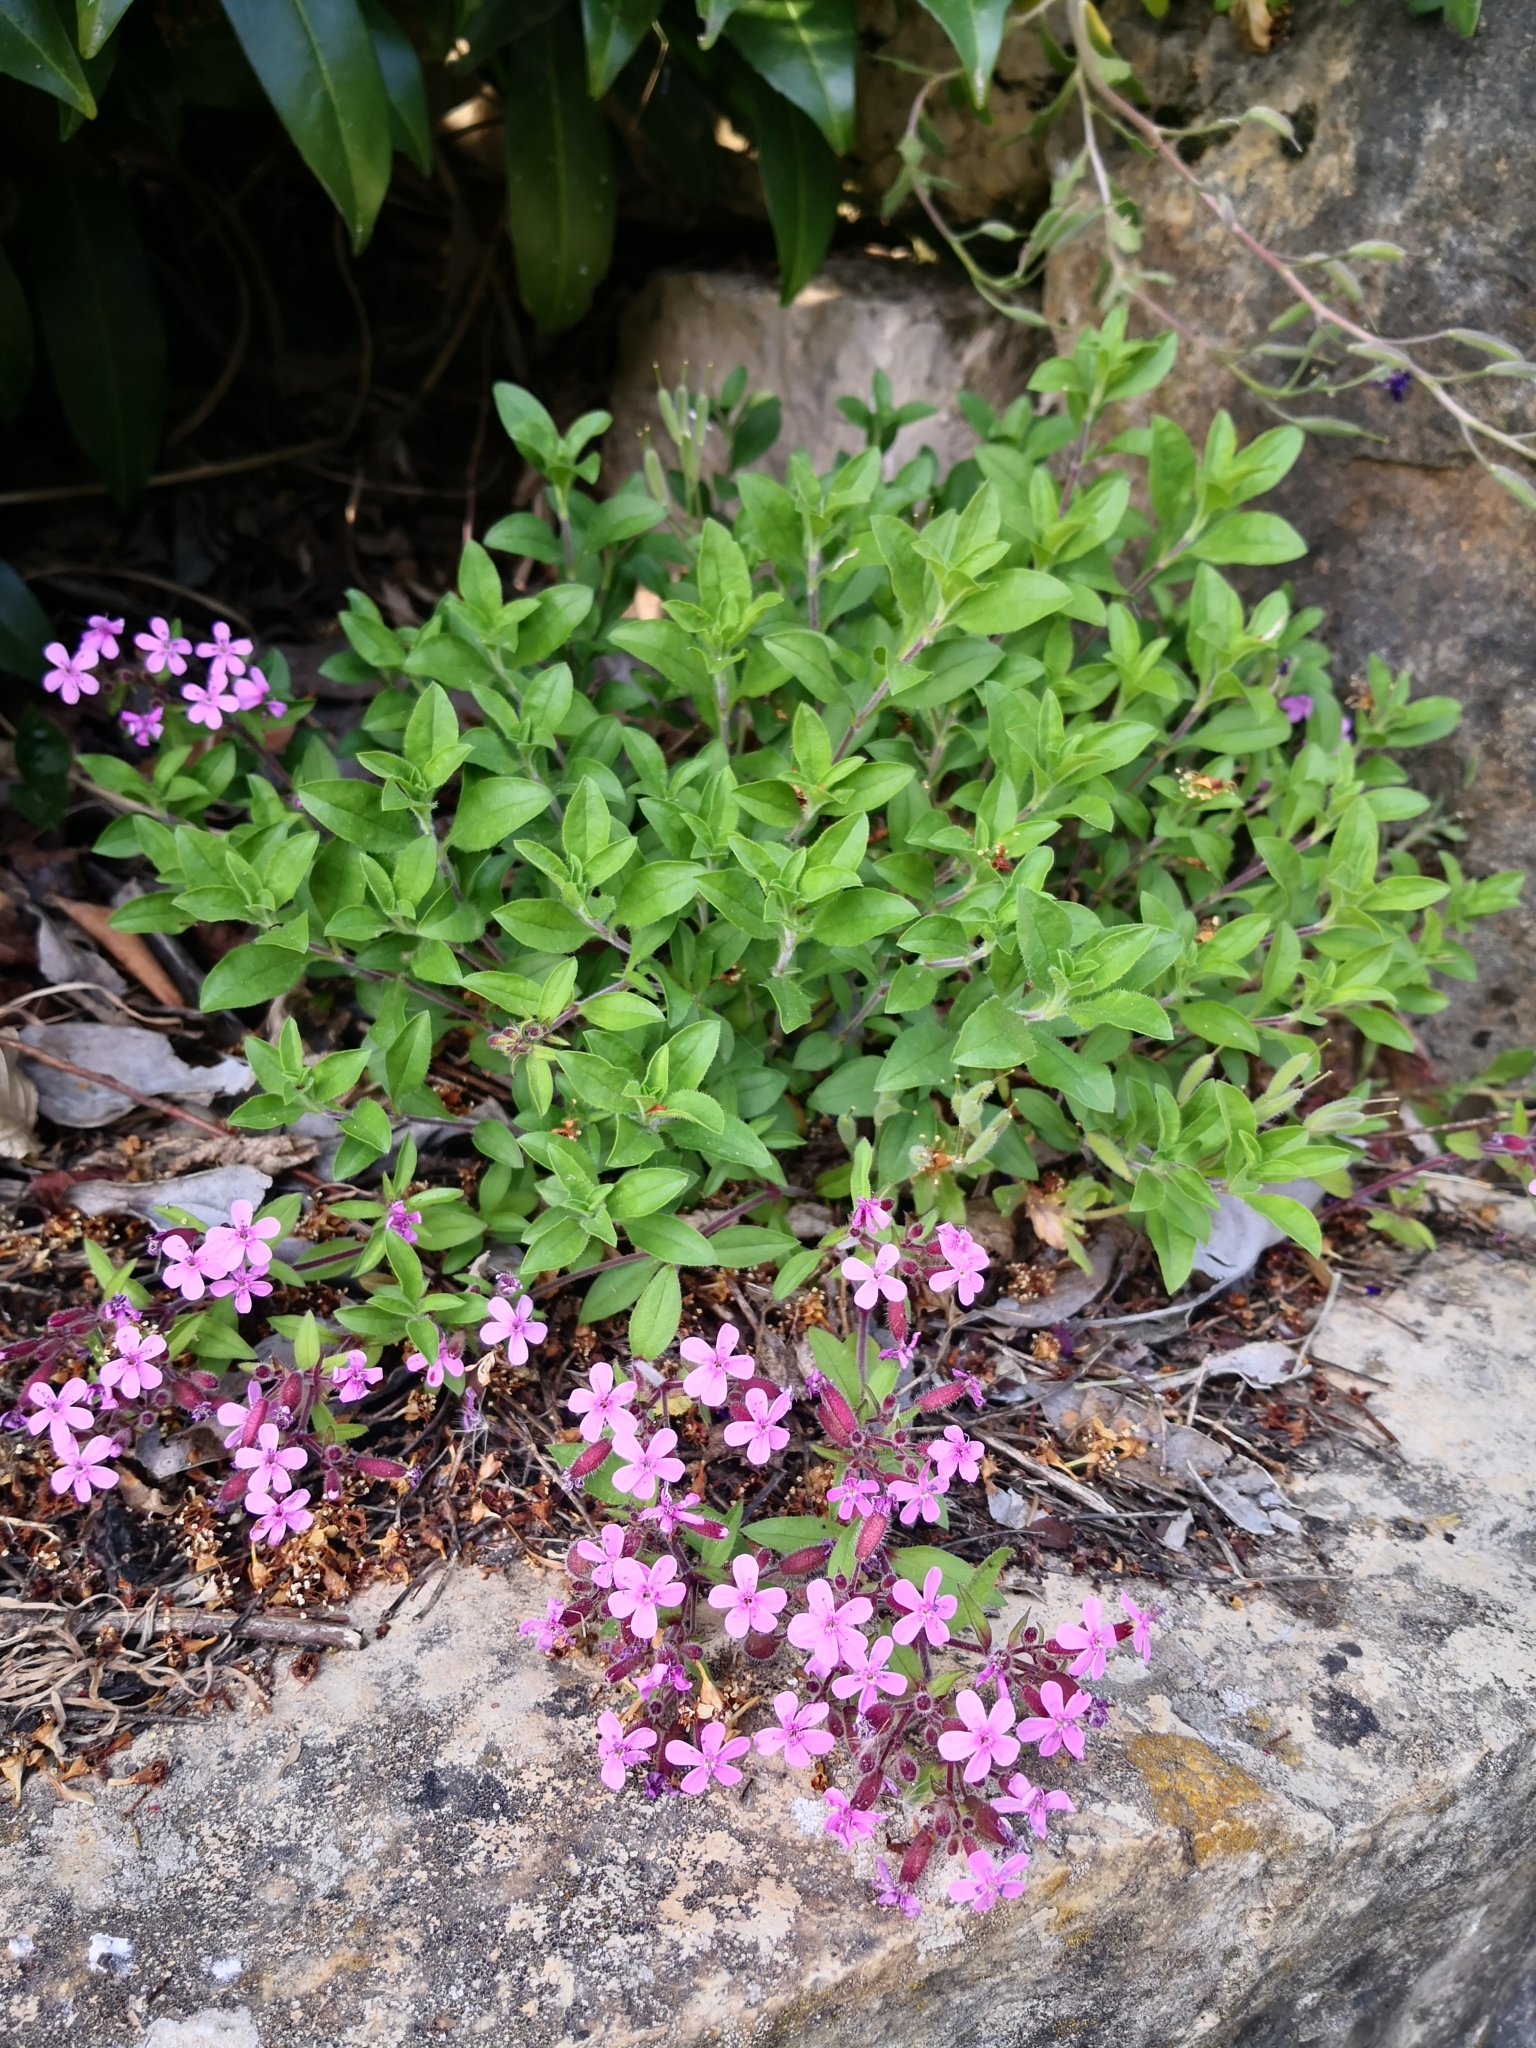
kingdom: Plantae
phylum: Tracheophyta
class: Magnoliopsida
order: Caryophyllales
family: Caryophyllaceae
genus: Saponaria
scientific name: Saponaria ocymoides
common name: Rock soapwort
